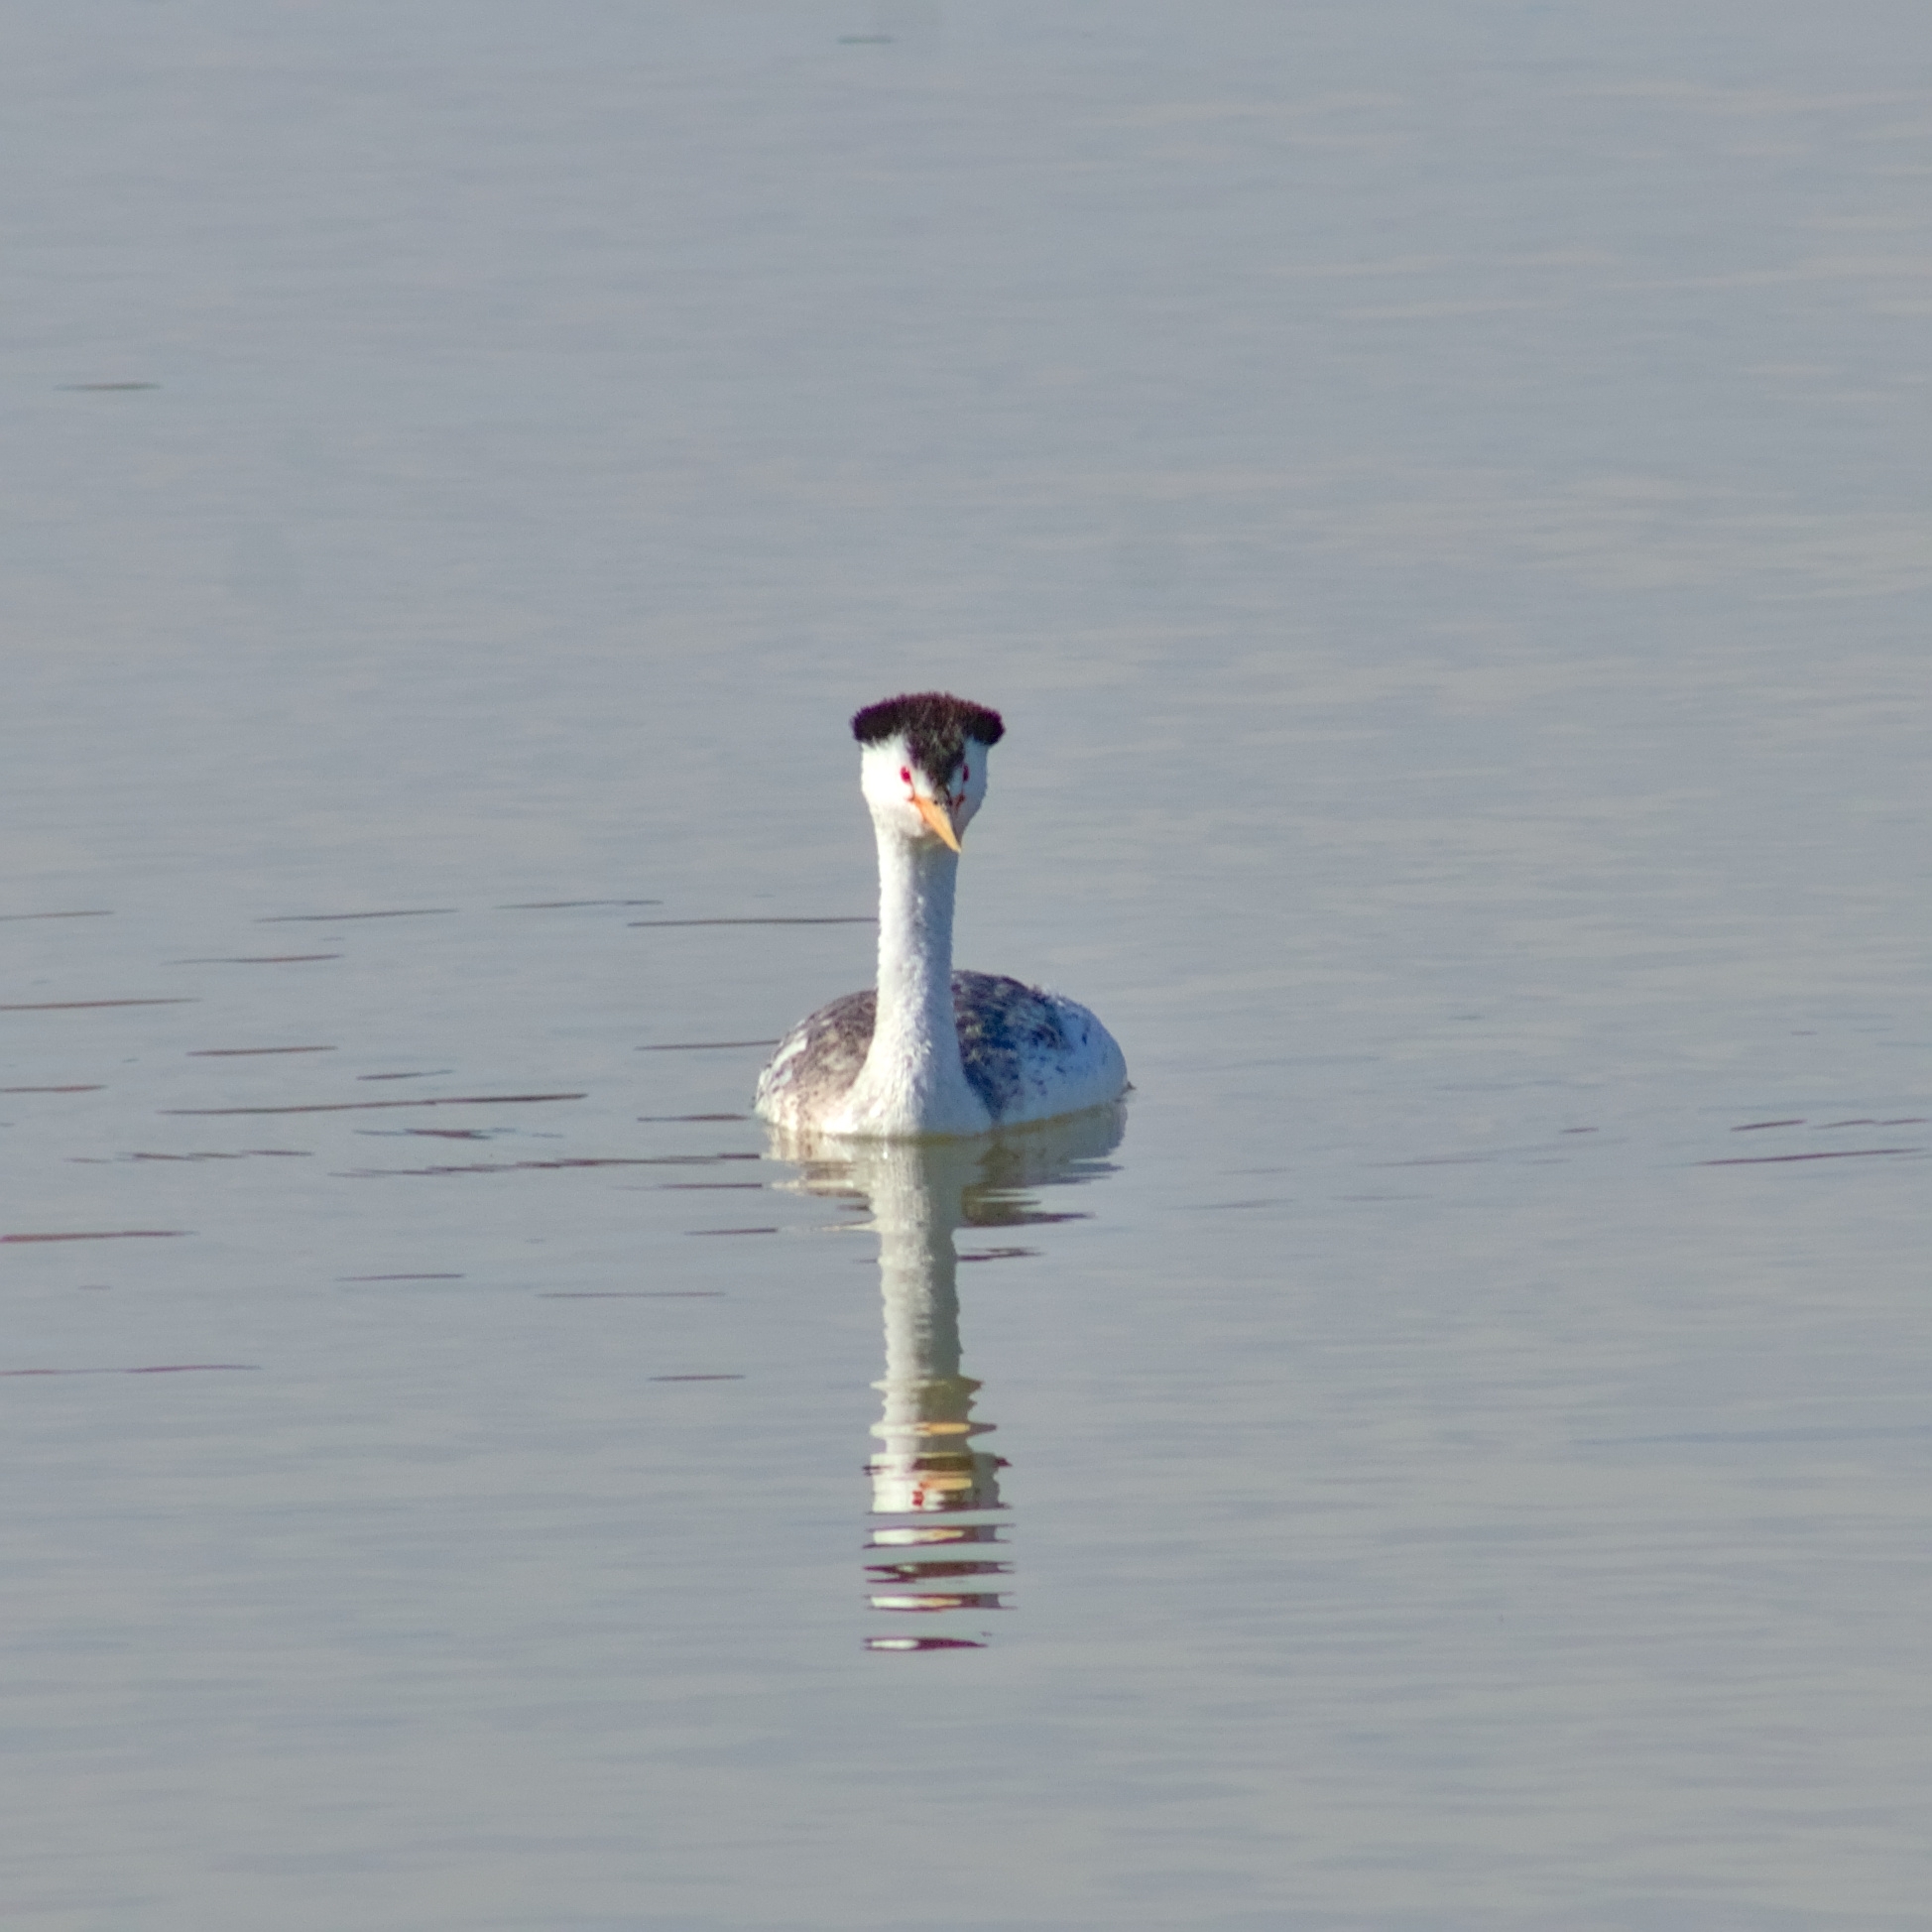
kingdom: Animalia
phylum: Chordata
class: Aves
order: Podicipediformes
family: Podicipedidae
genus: Aechmophorus
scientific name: Aechmophorus clarkii
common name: Clark's grebe
